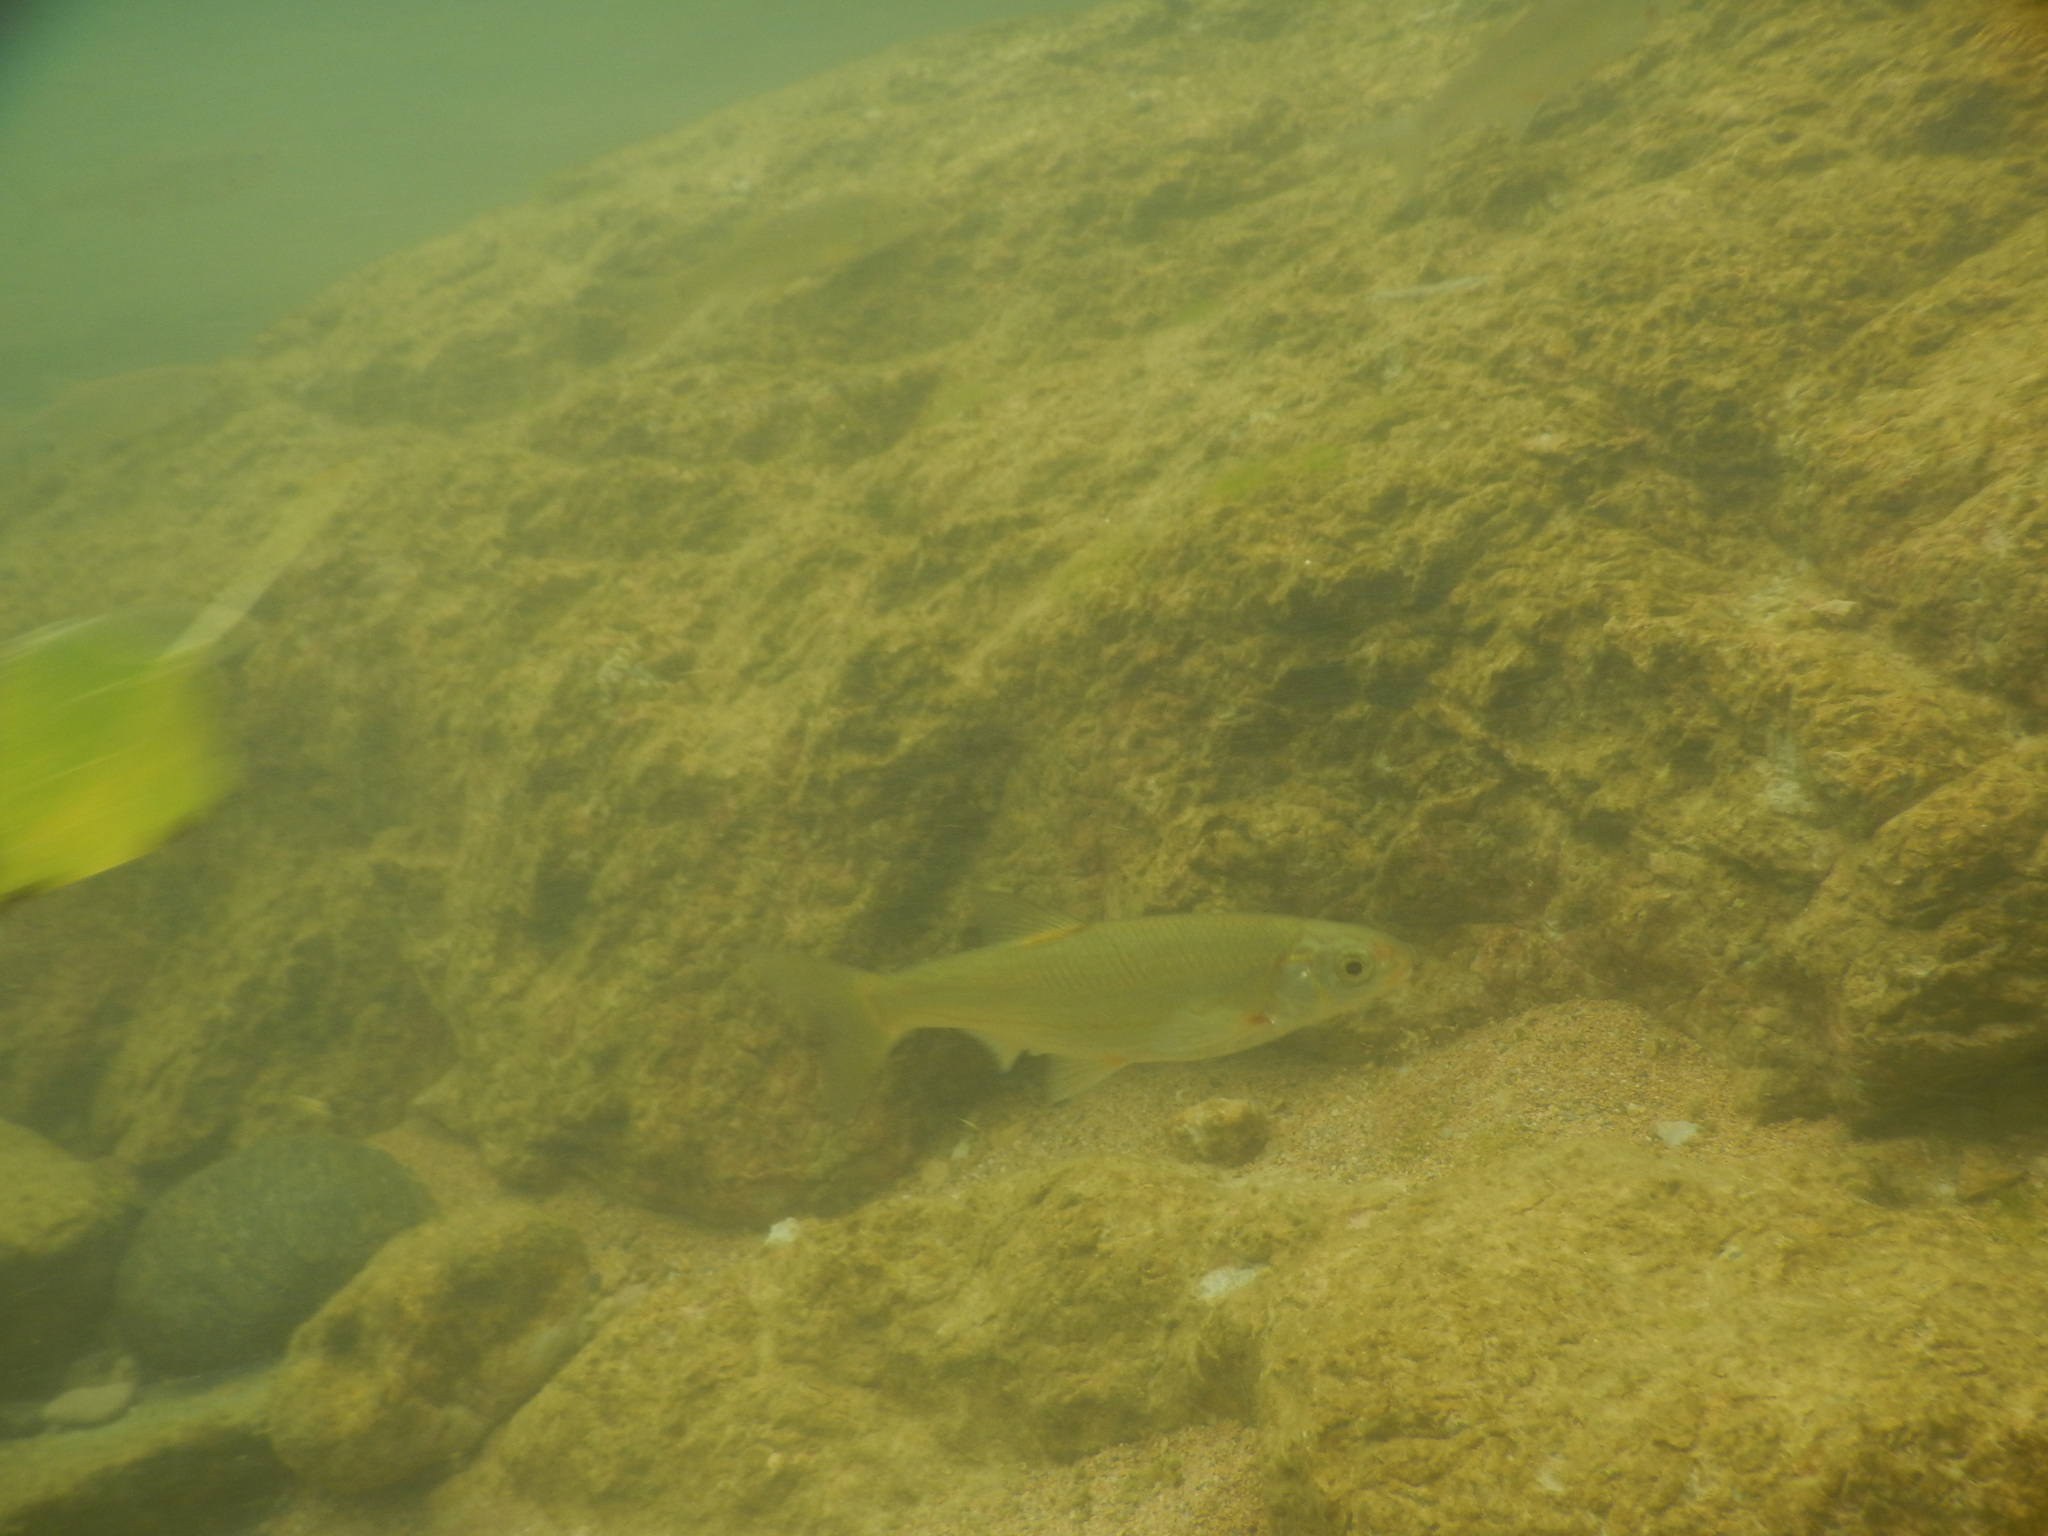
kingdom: Animalia
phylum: Chordata
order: Cypriniformes
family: Cyprinidae
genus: Telestes
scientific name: Telestes souffia
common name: Souffia
